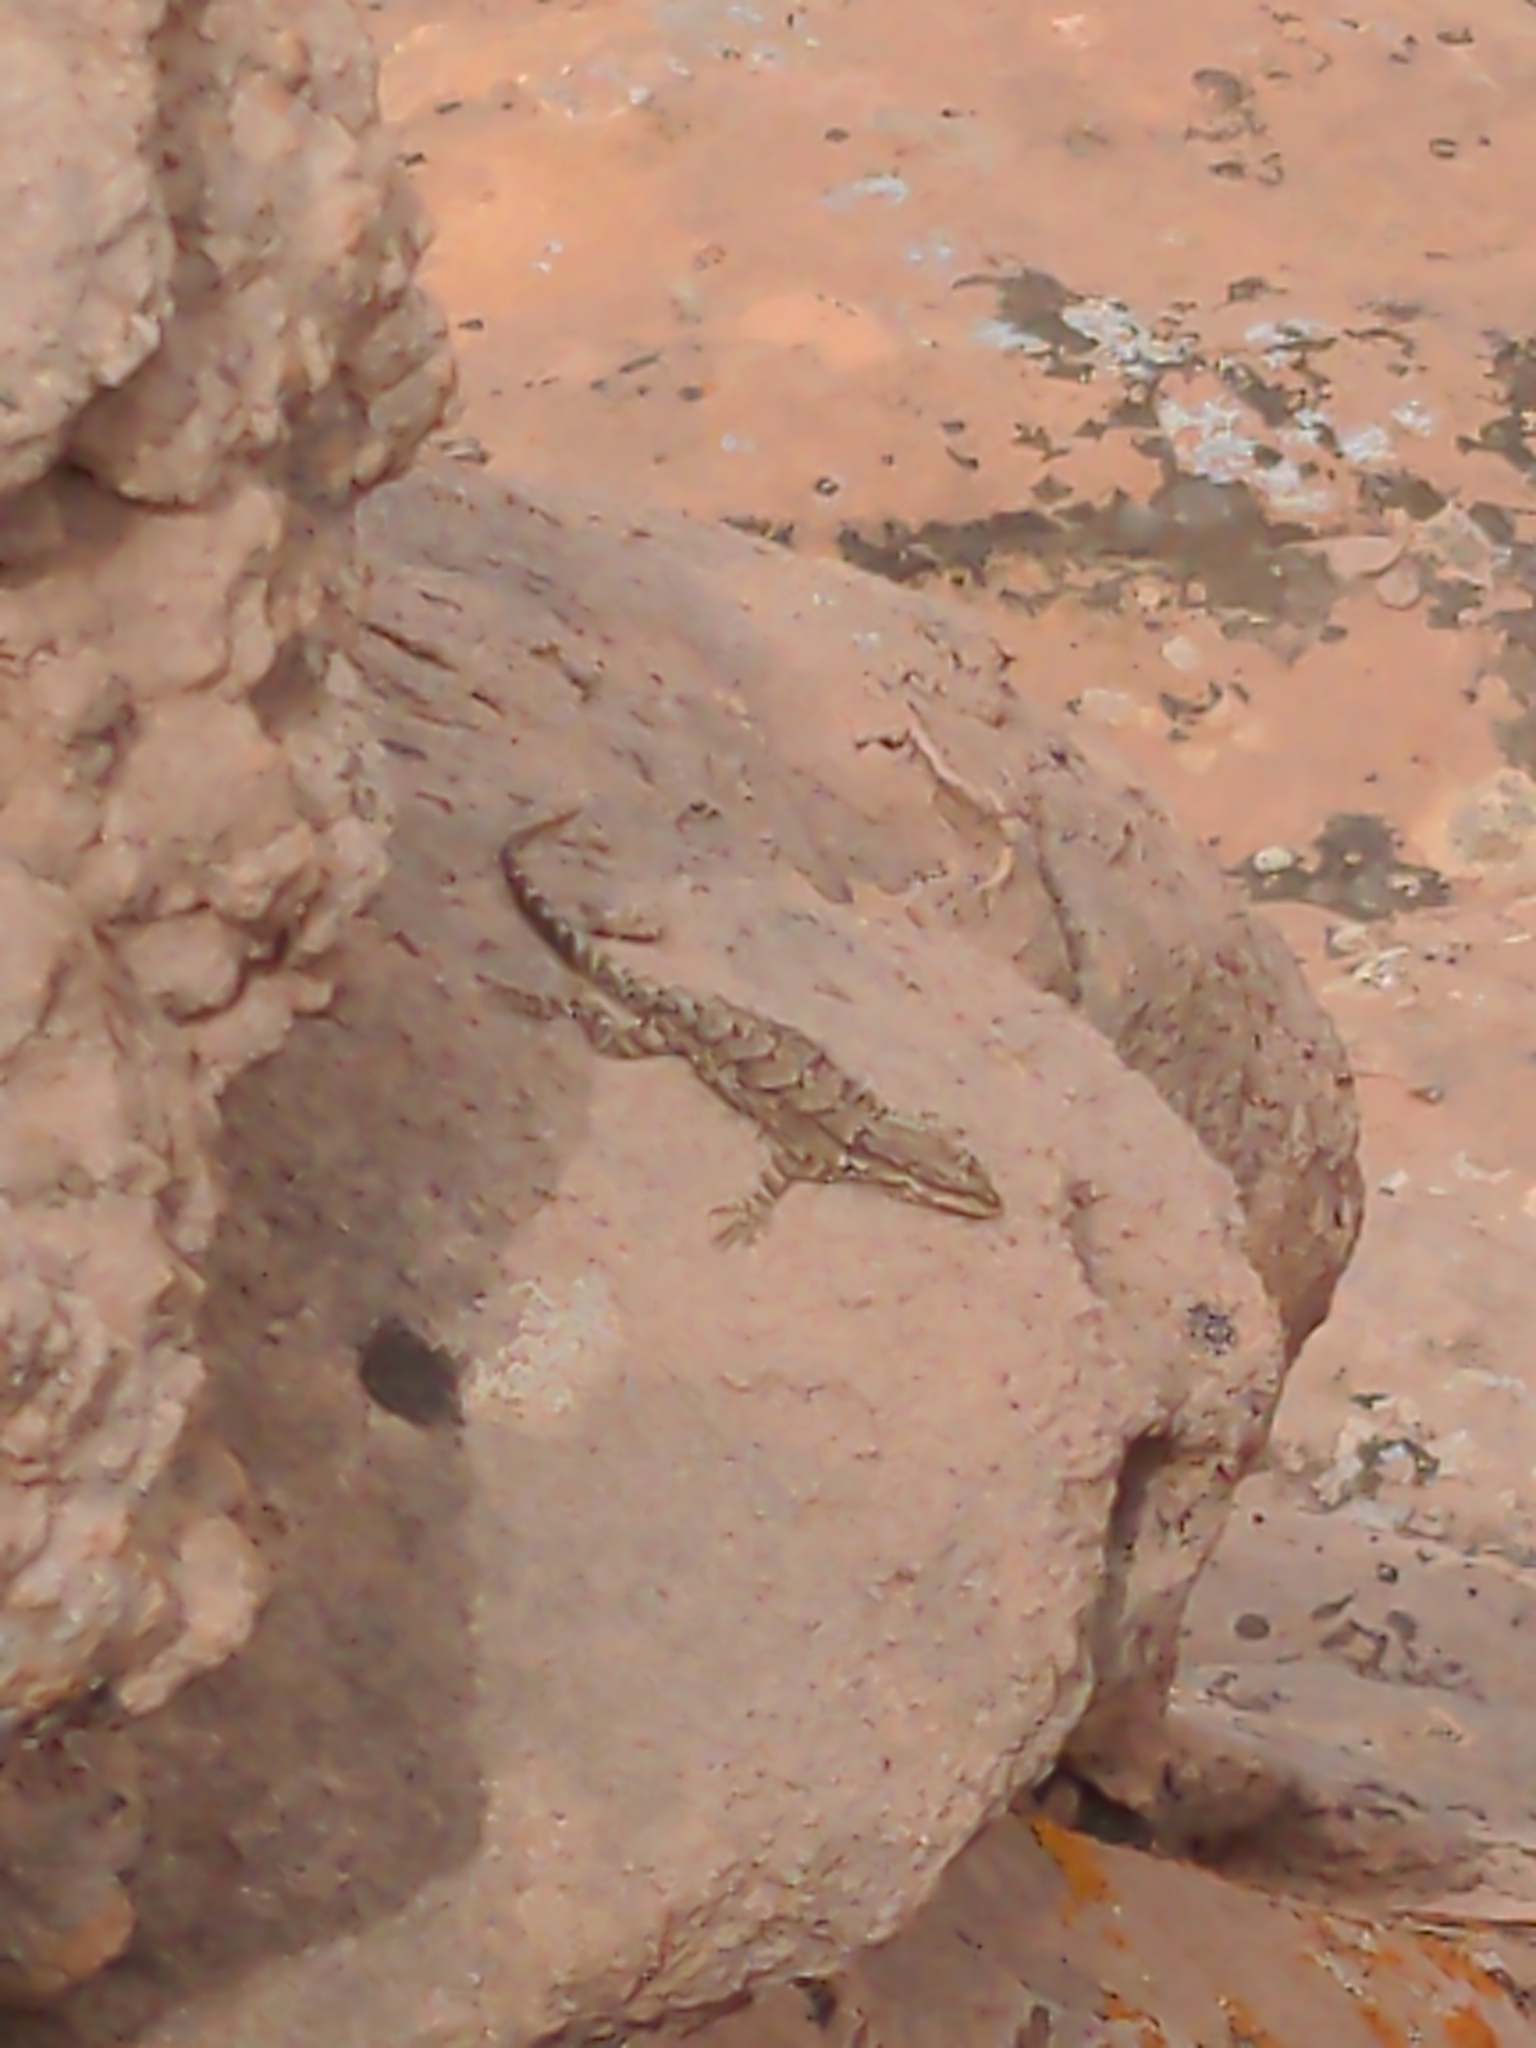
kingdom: Animalia
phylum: Chordata
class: Squamata
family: Phrynosomatidae
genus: Urosaurus
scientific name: Urosaurus ornatus
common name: Ornate tree lizard
